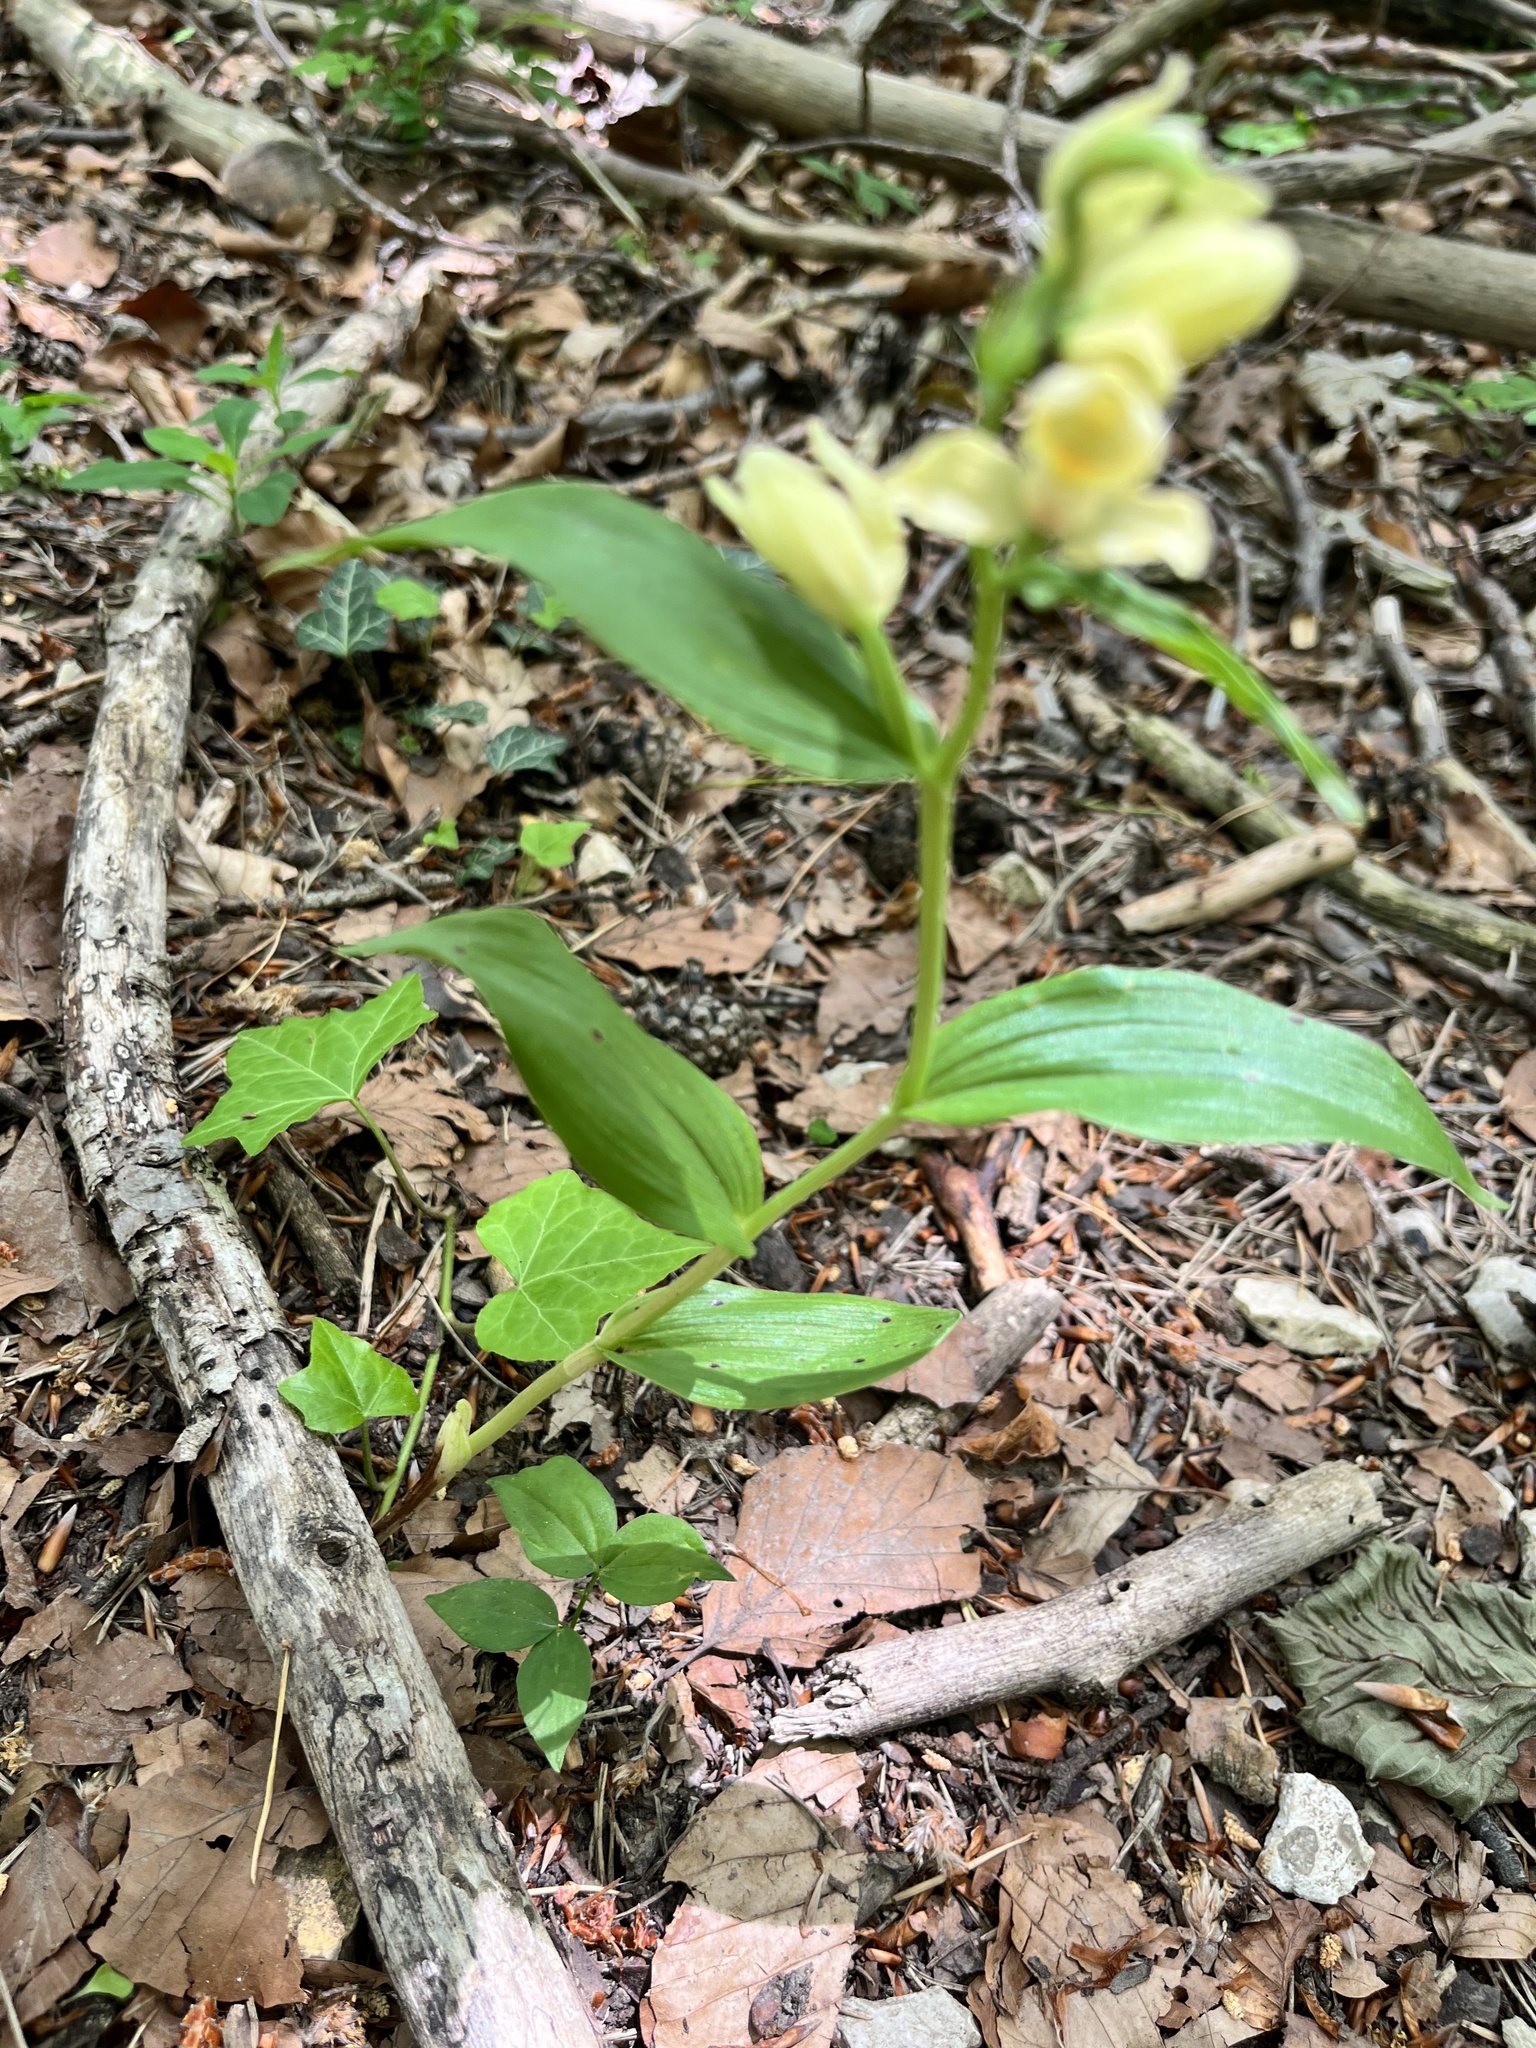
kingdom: Plantae
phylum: Tracheophyta
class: Liliopsida
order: Asparagales
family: Orchidaceae
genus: Cephalanthera
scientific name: Cephalanthera damasonium
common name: White helleborine
